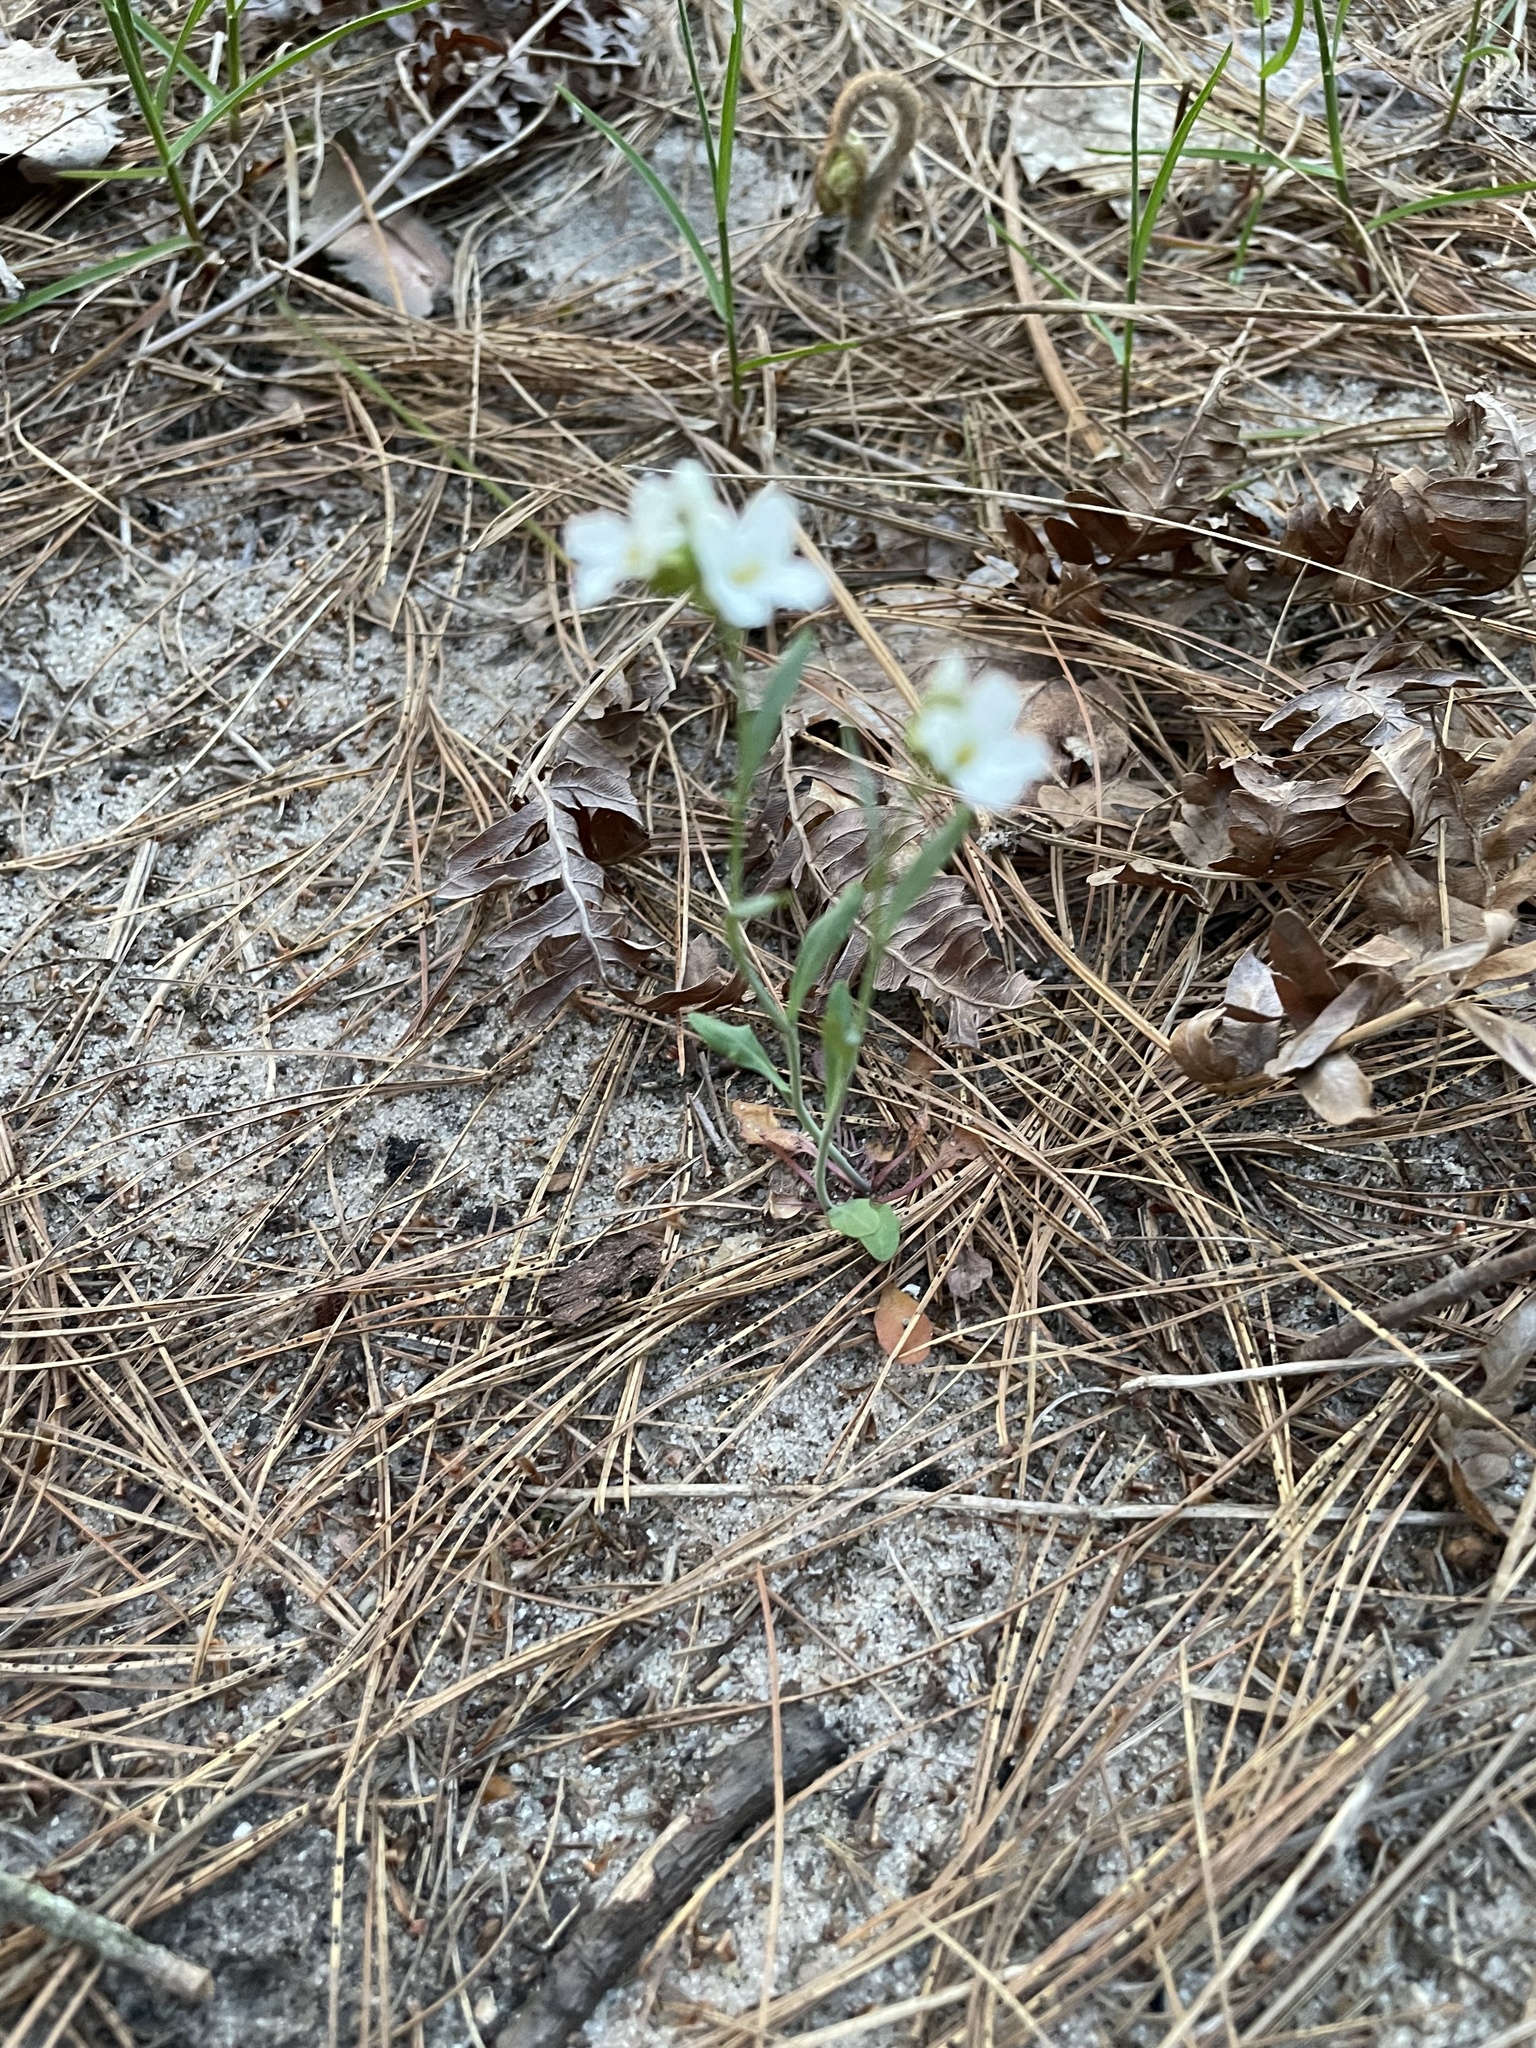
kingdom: Plantae
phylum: Tracheophyta
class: Magnoliopsida
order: Brassicales
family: Brassicaceae
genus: Arabidopsis
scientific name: Arabidopsis lyrata
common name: Lyrate rockcress
